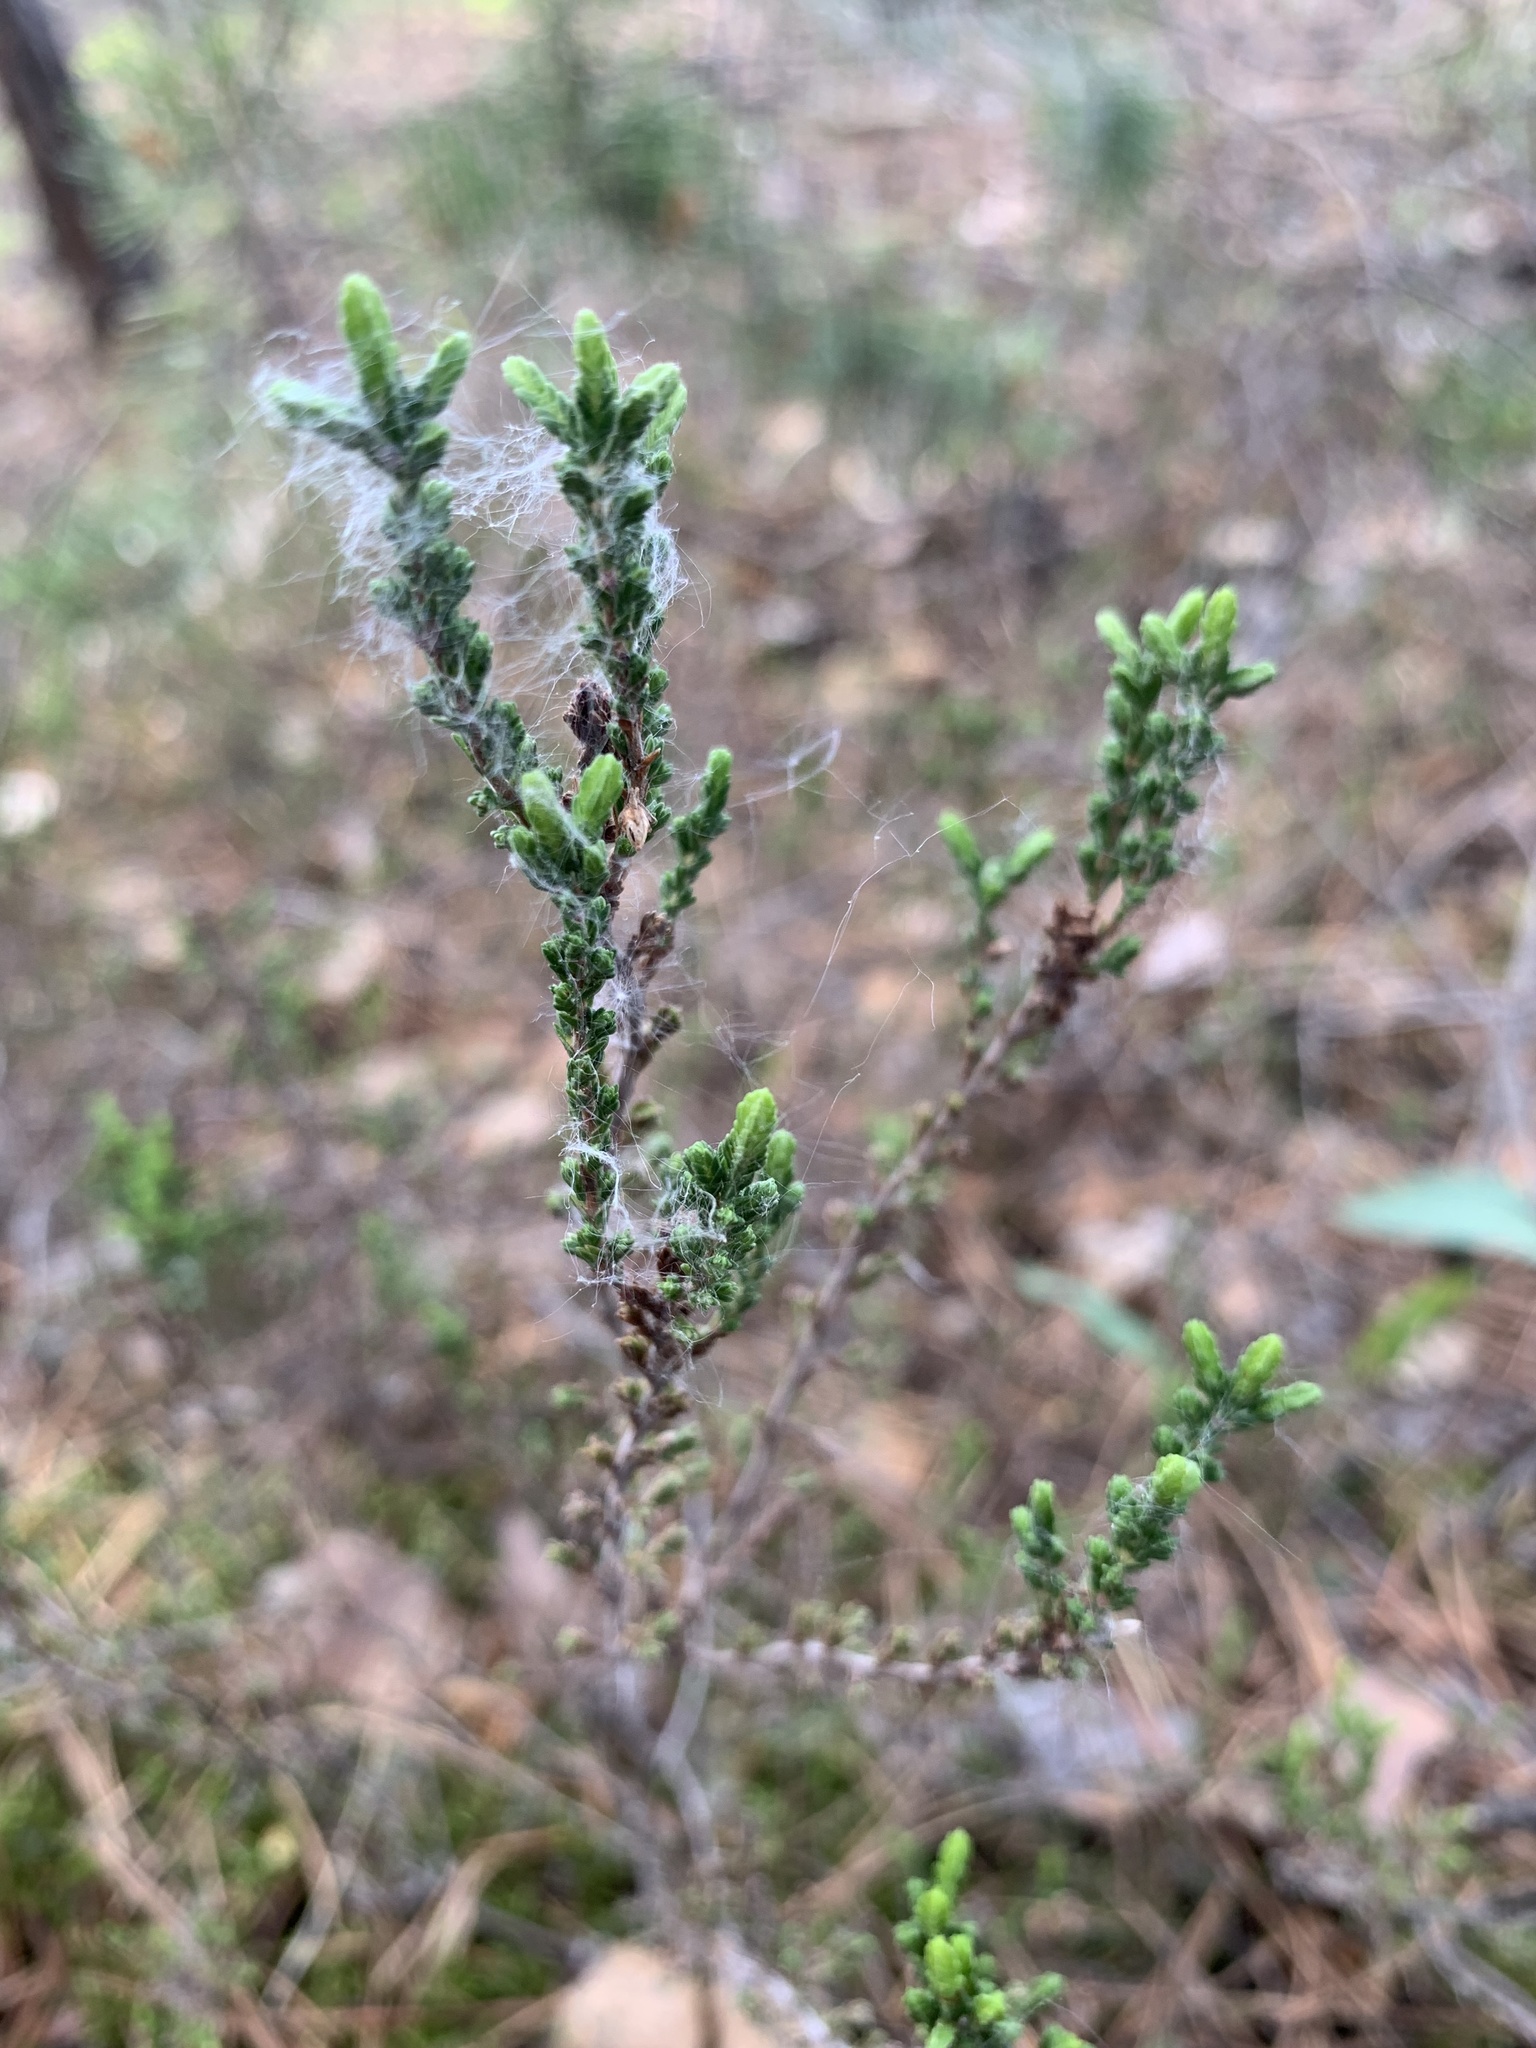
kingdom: Plantae
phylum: Tracheophyta
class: Magnoliopsida
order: Ericales
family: Ericaceae
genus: Calluna
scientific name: Calluna vulgaris
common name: Heather
